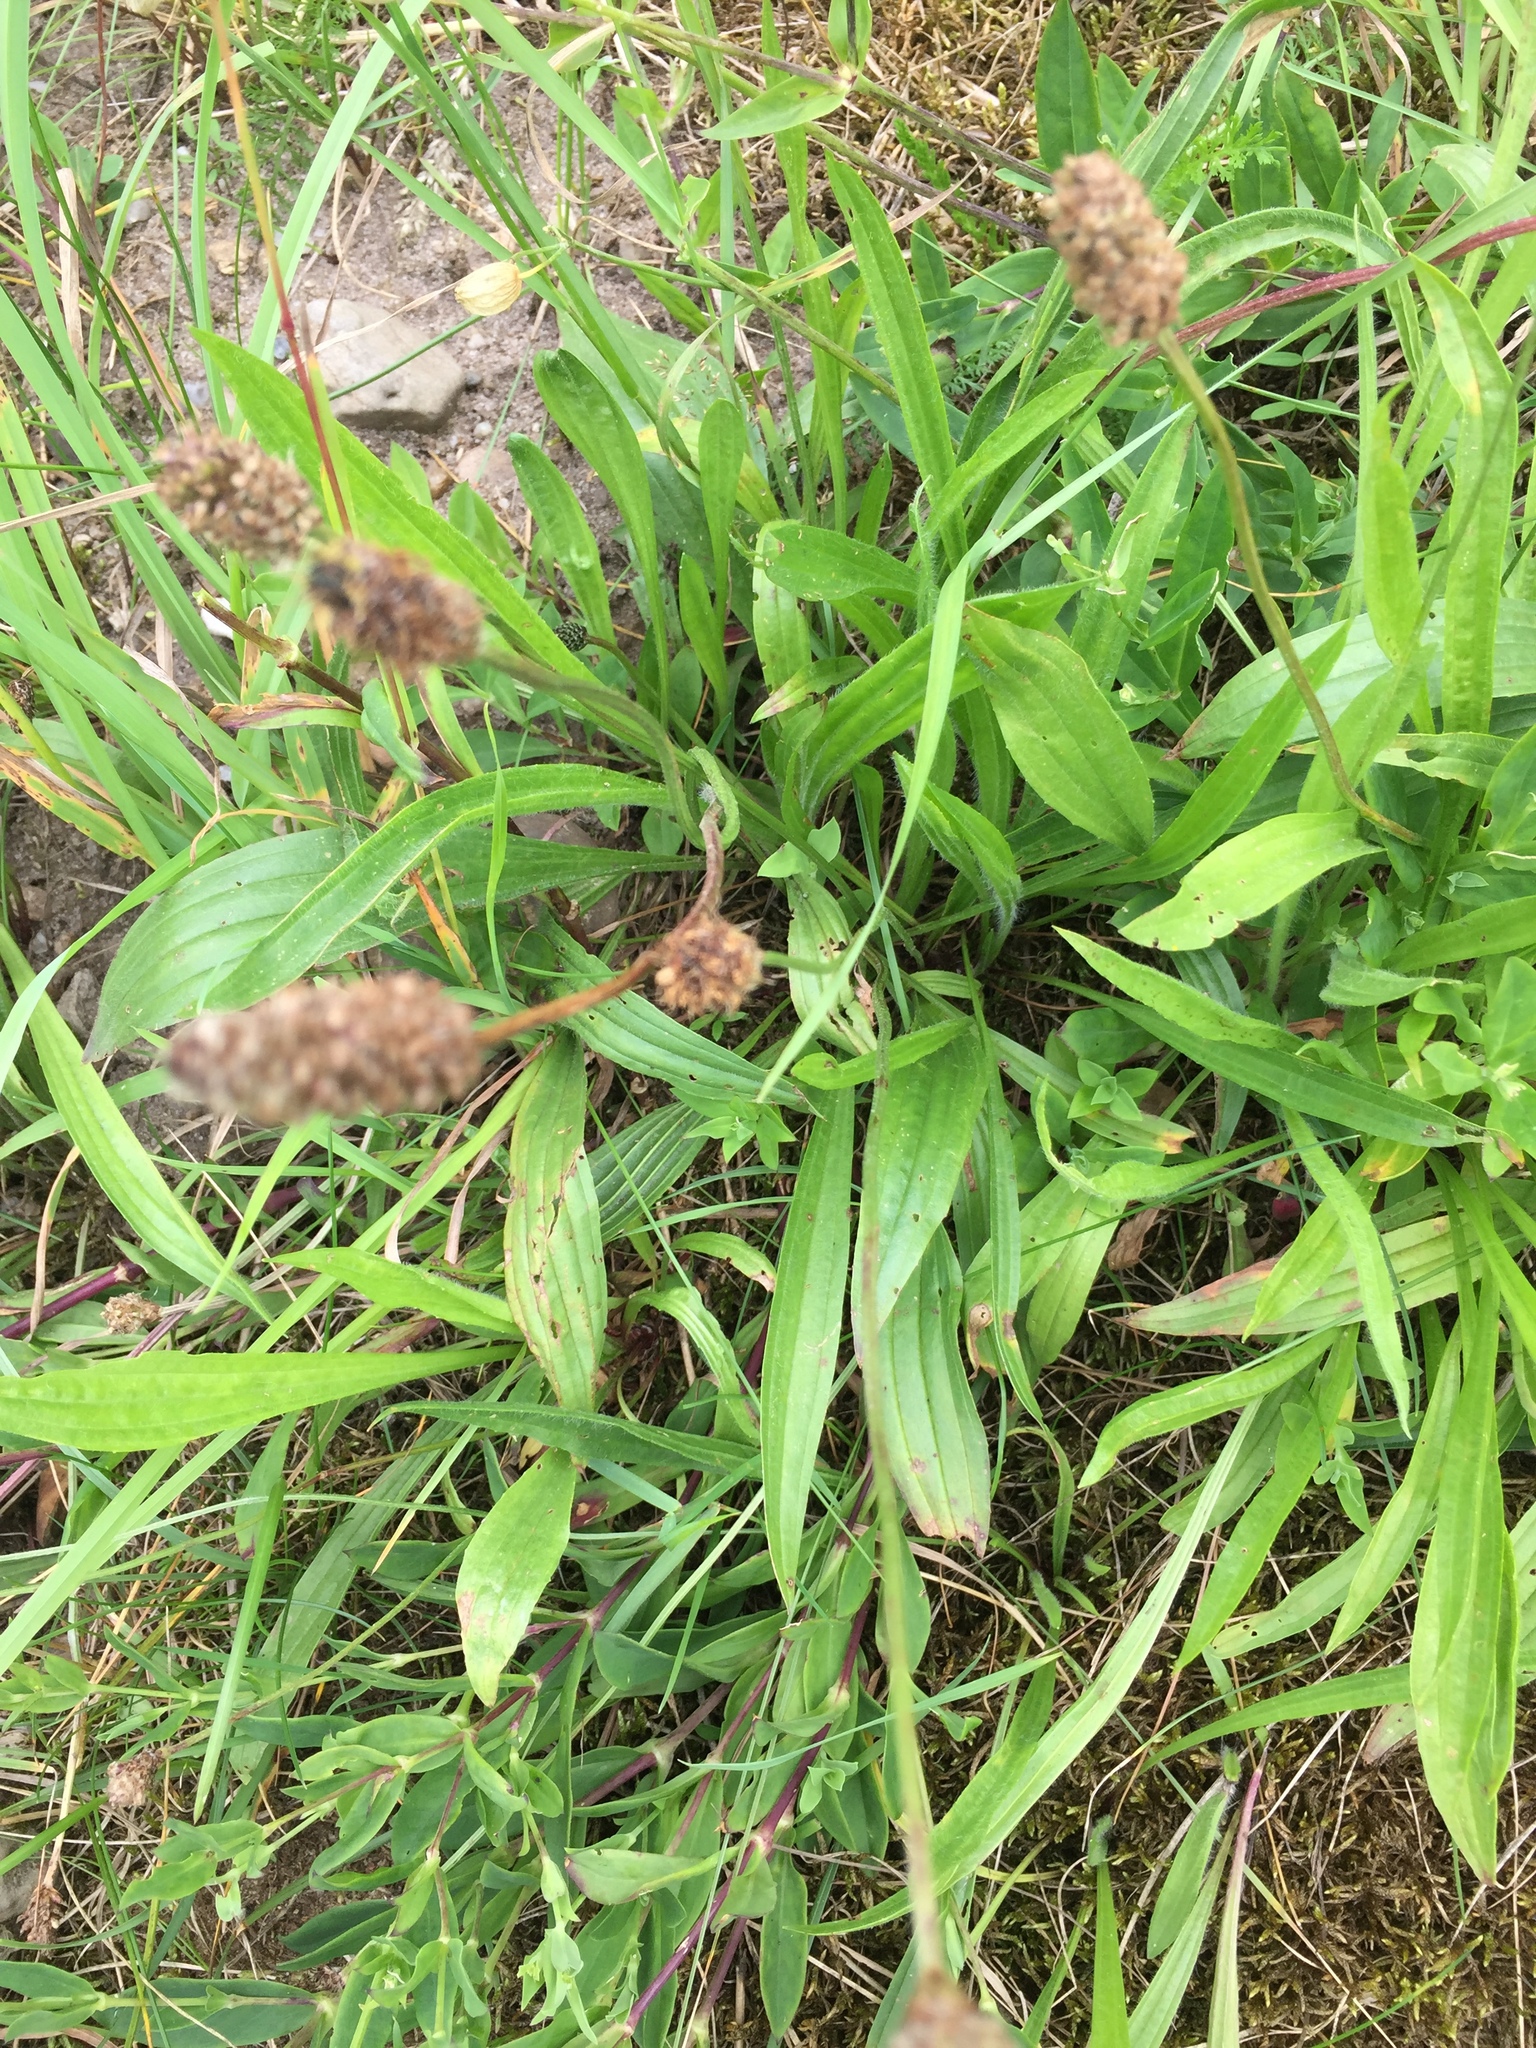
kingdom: Plantae
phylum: Tracheophyta
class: Magnoliopsida
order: Lamiales
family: Plantaginaceae
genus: Plantago
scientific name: Plantago lanceolata
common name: Ribwort plantain
